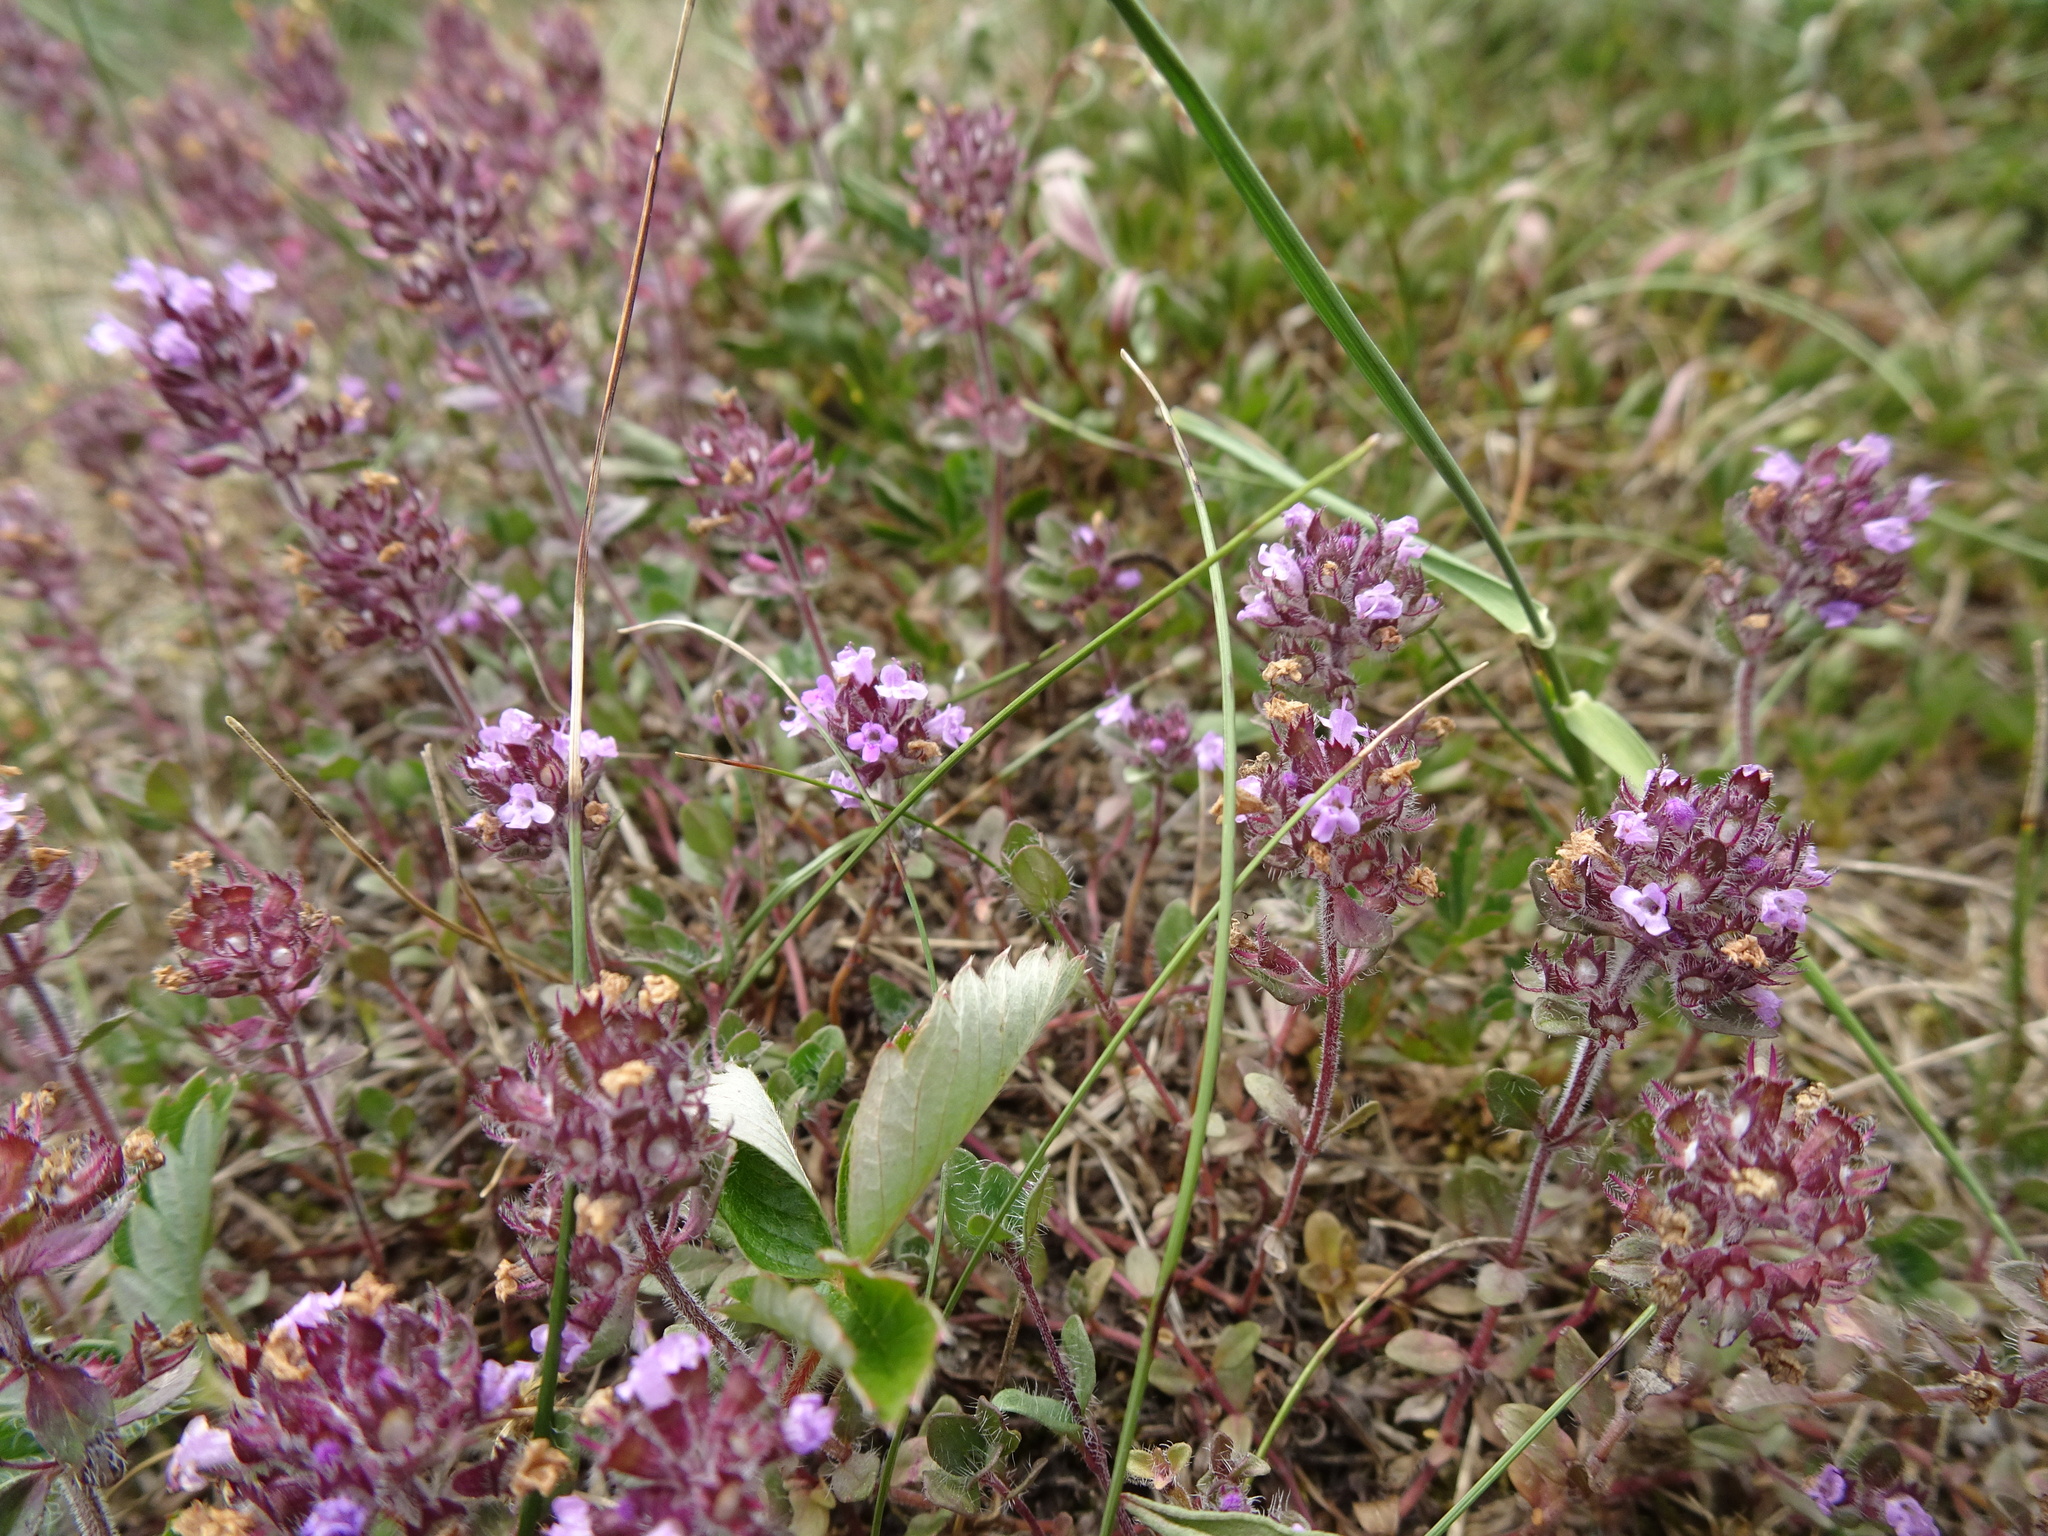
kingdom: Plantae
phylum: Tracheophyta
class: Magnoliopsida
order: Lamiales
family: Lamiaceae
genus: Thymus
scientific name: Thymus pulegioides
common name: Large thyme
